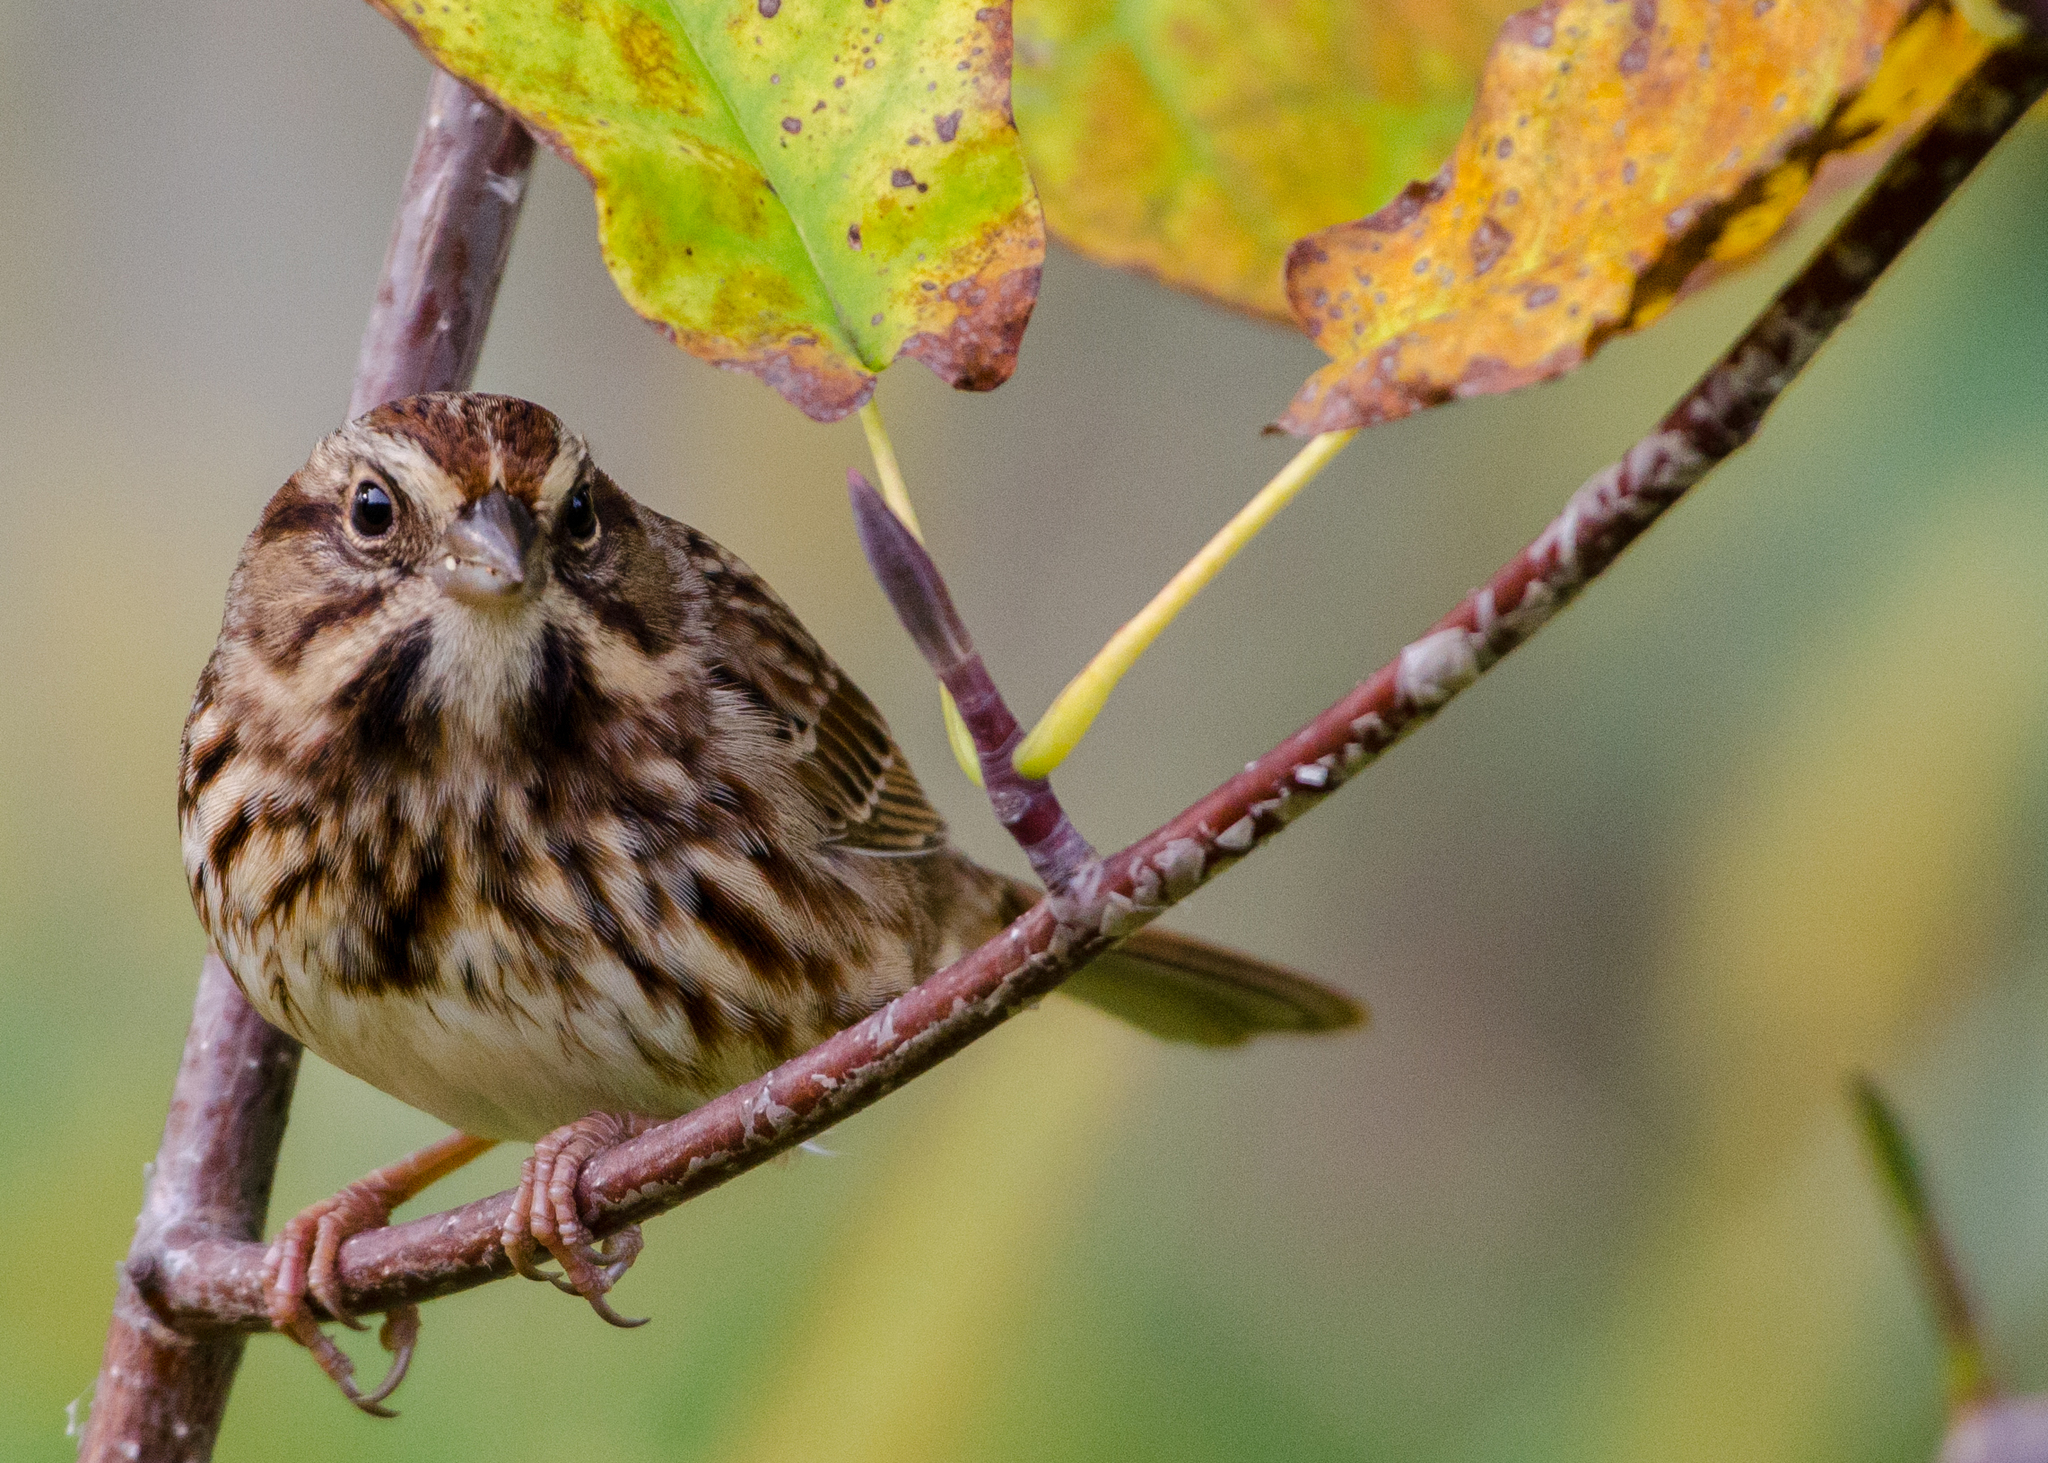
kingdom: Animalia
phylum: Chordata
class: Aves
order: Passeriformes
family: Passerellidae
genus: Melospiza
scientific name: Melospiza melodia
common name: Song sparrow
